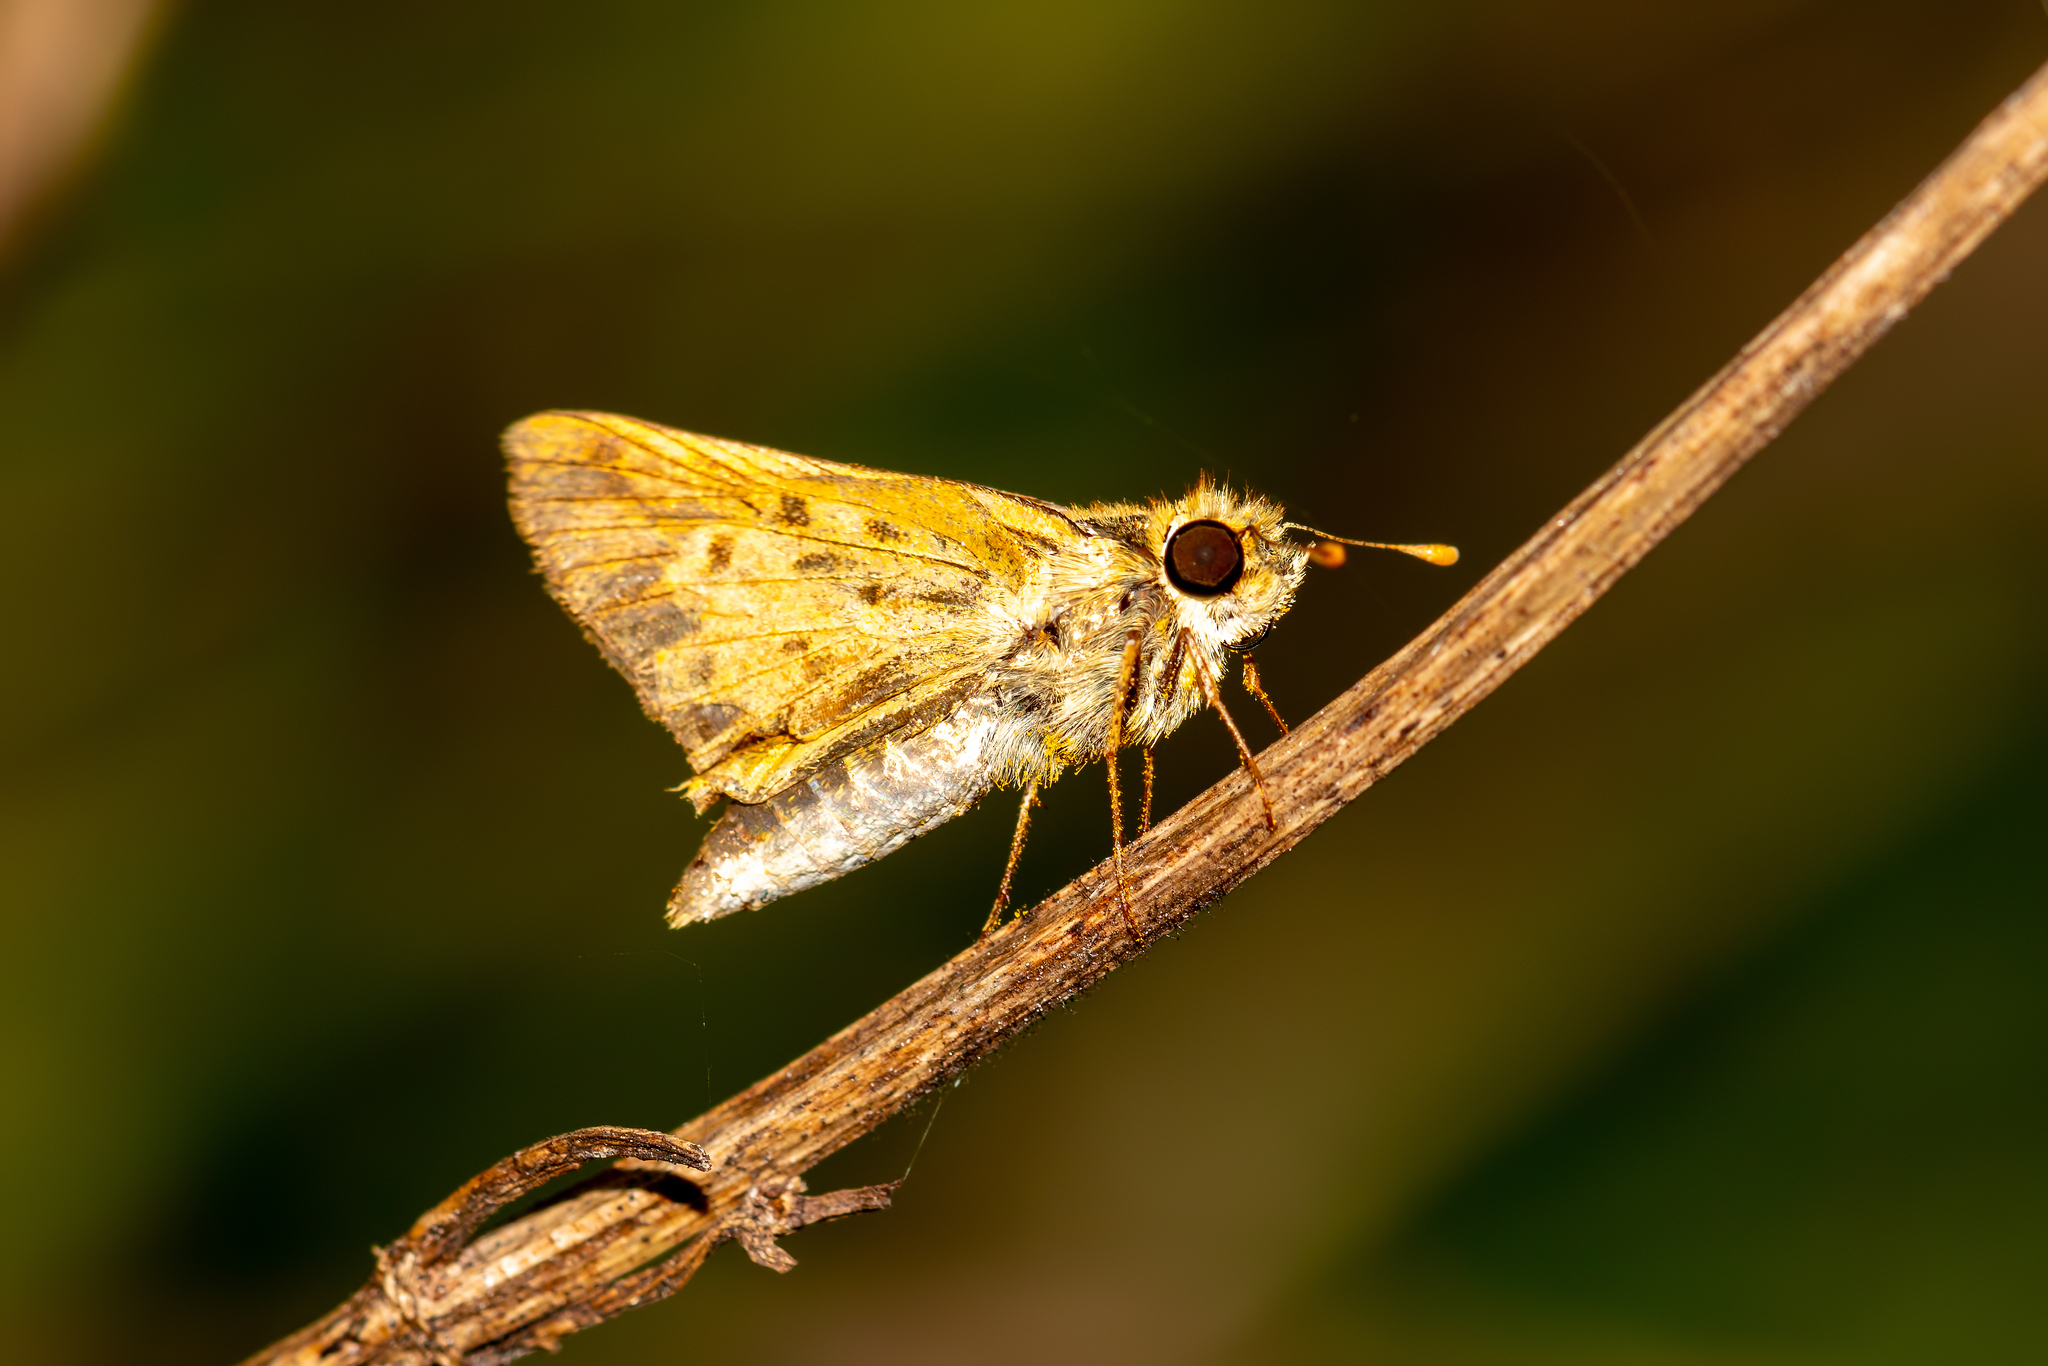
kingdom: Animalia
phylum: Arthropoda
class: Insecta
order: Lepidoptera
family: Hesperiidae
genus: Hylephila
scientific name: Hylephila phyleus
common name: Fiery skipper
